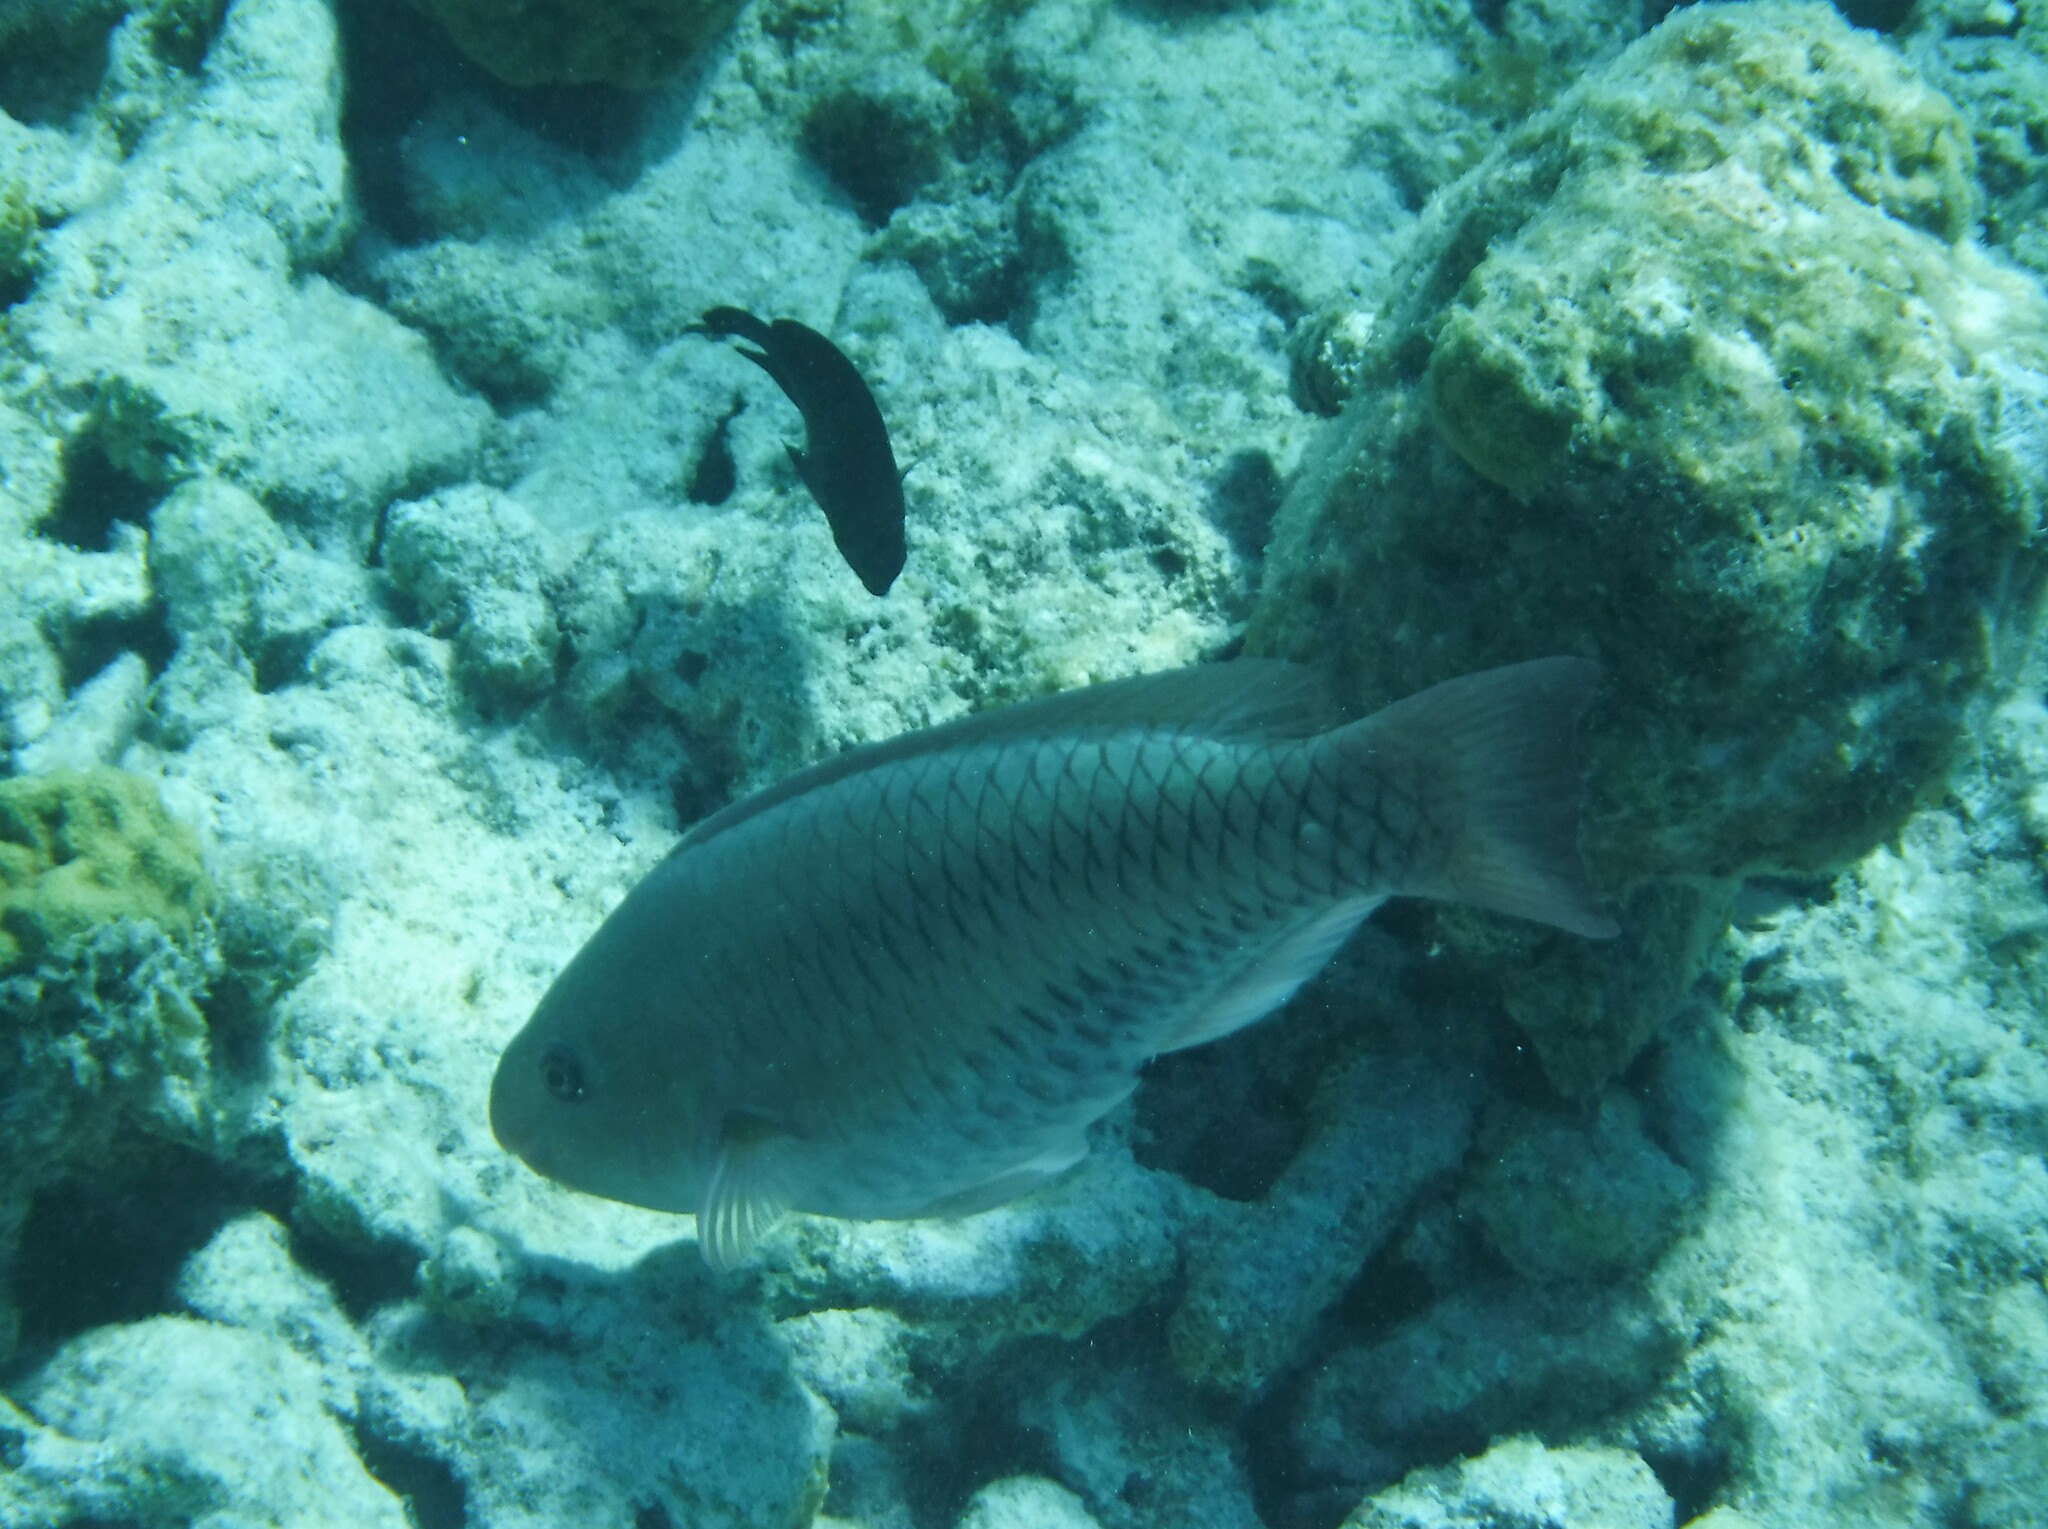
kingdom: Animalia
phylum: Chordata
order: Perciformes
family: Scaridae
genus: Scarus
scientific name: Scarus vetula
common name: Queen parrotfish
